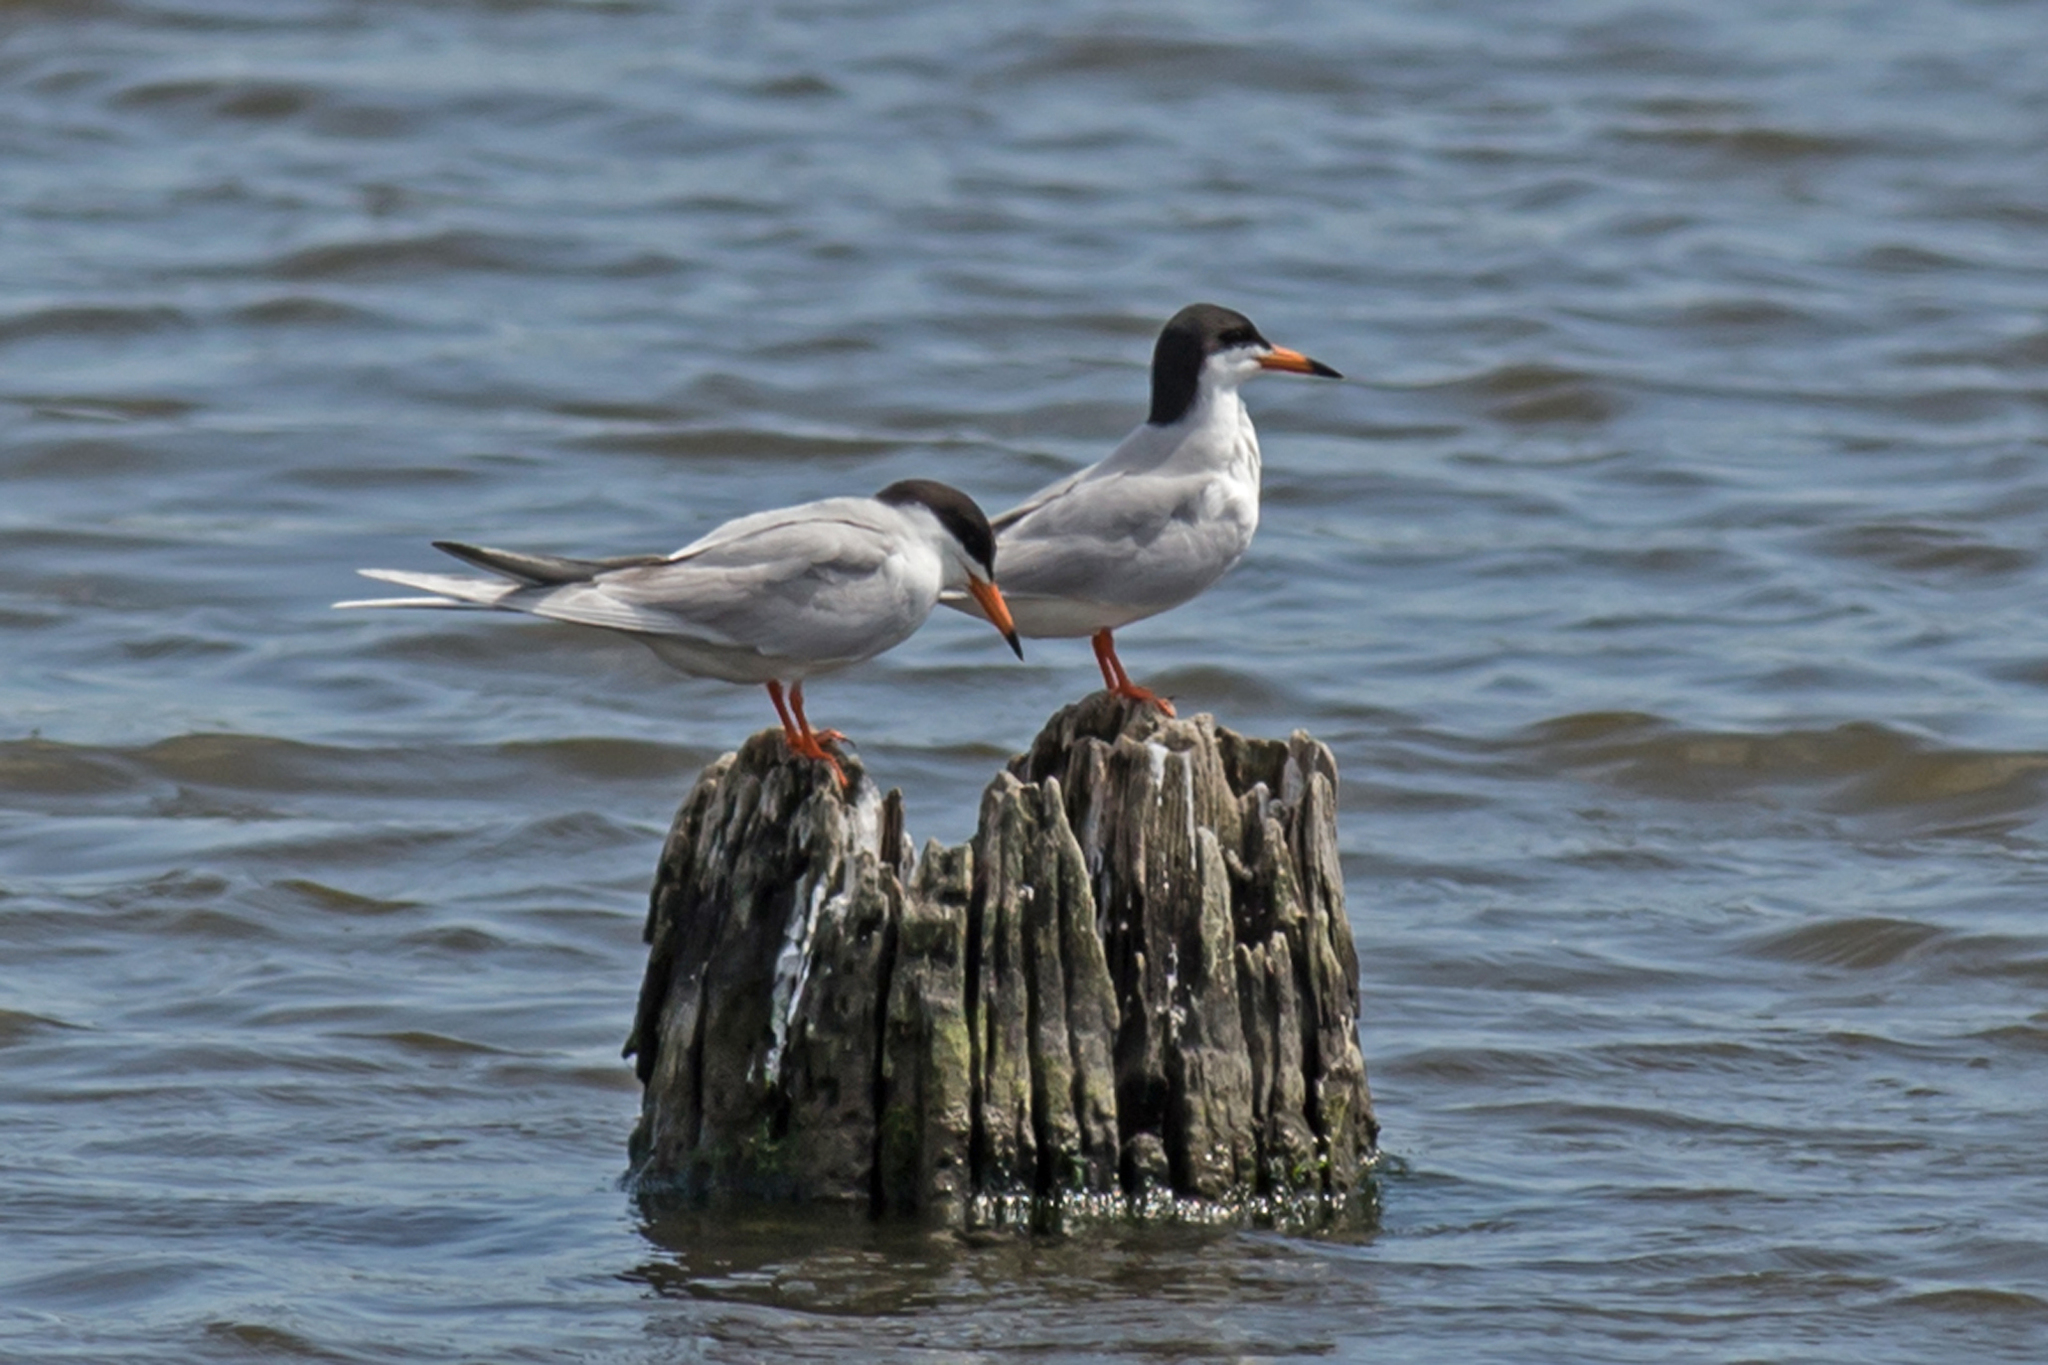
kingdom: Animalia
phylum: Chordata
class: Aves
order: Charadriiformes
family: Laridae
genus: Sterna
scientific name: Sterna forsteri
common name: Forster's tern
